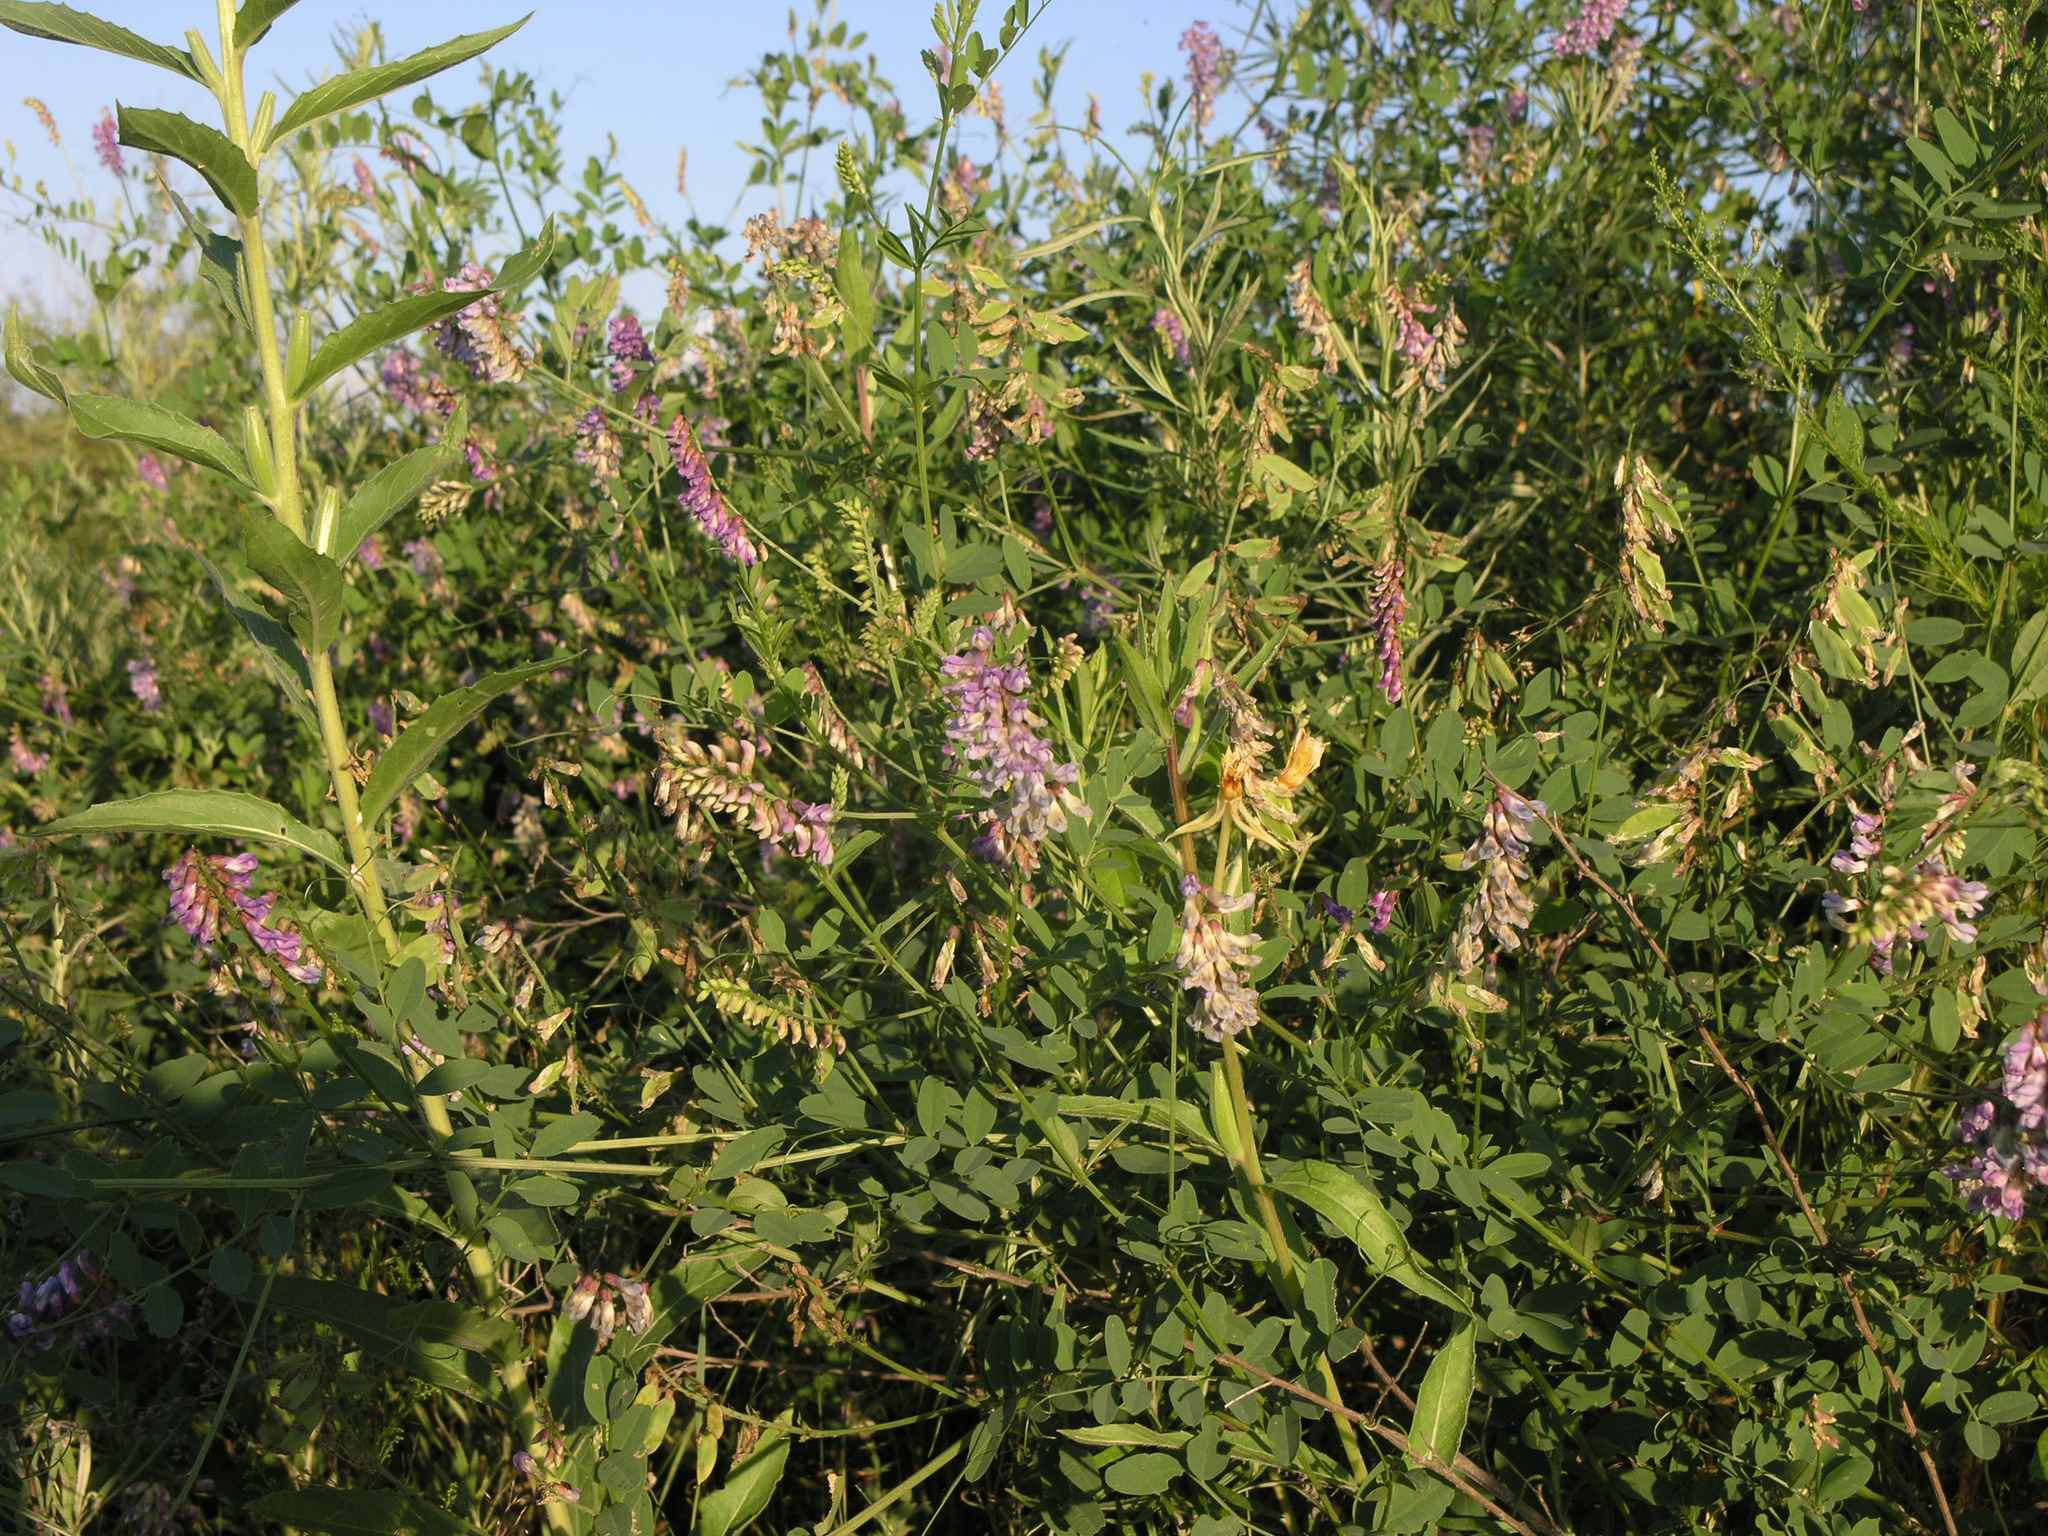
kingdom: Plantae
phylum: Tracheophyta
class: Magnoliopsida
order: Fabales
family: Fabaceae
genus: Vicia
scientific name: Vicia amurensis
